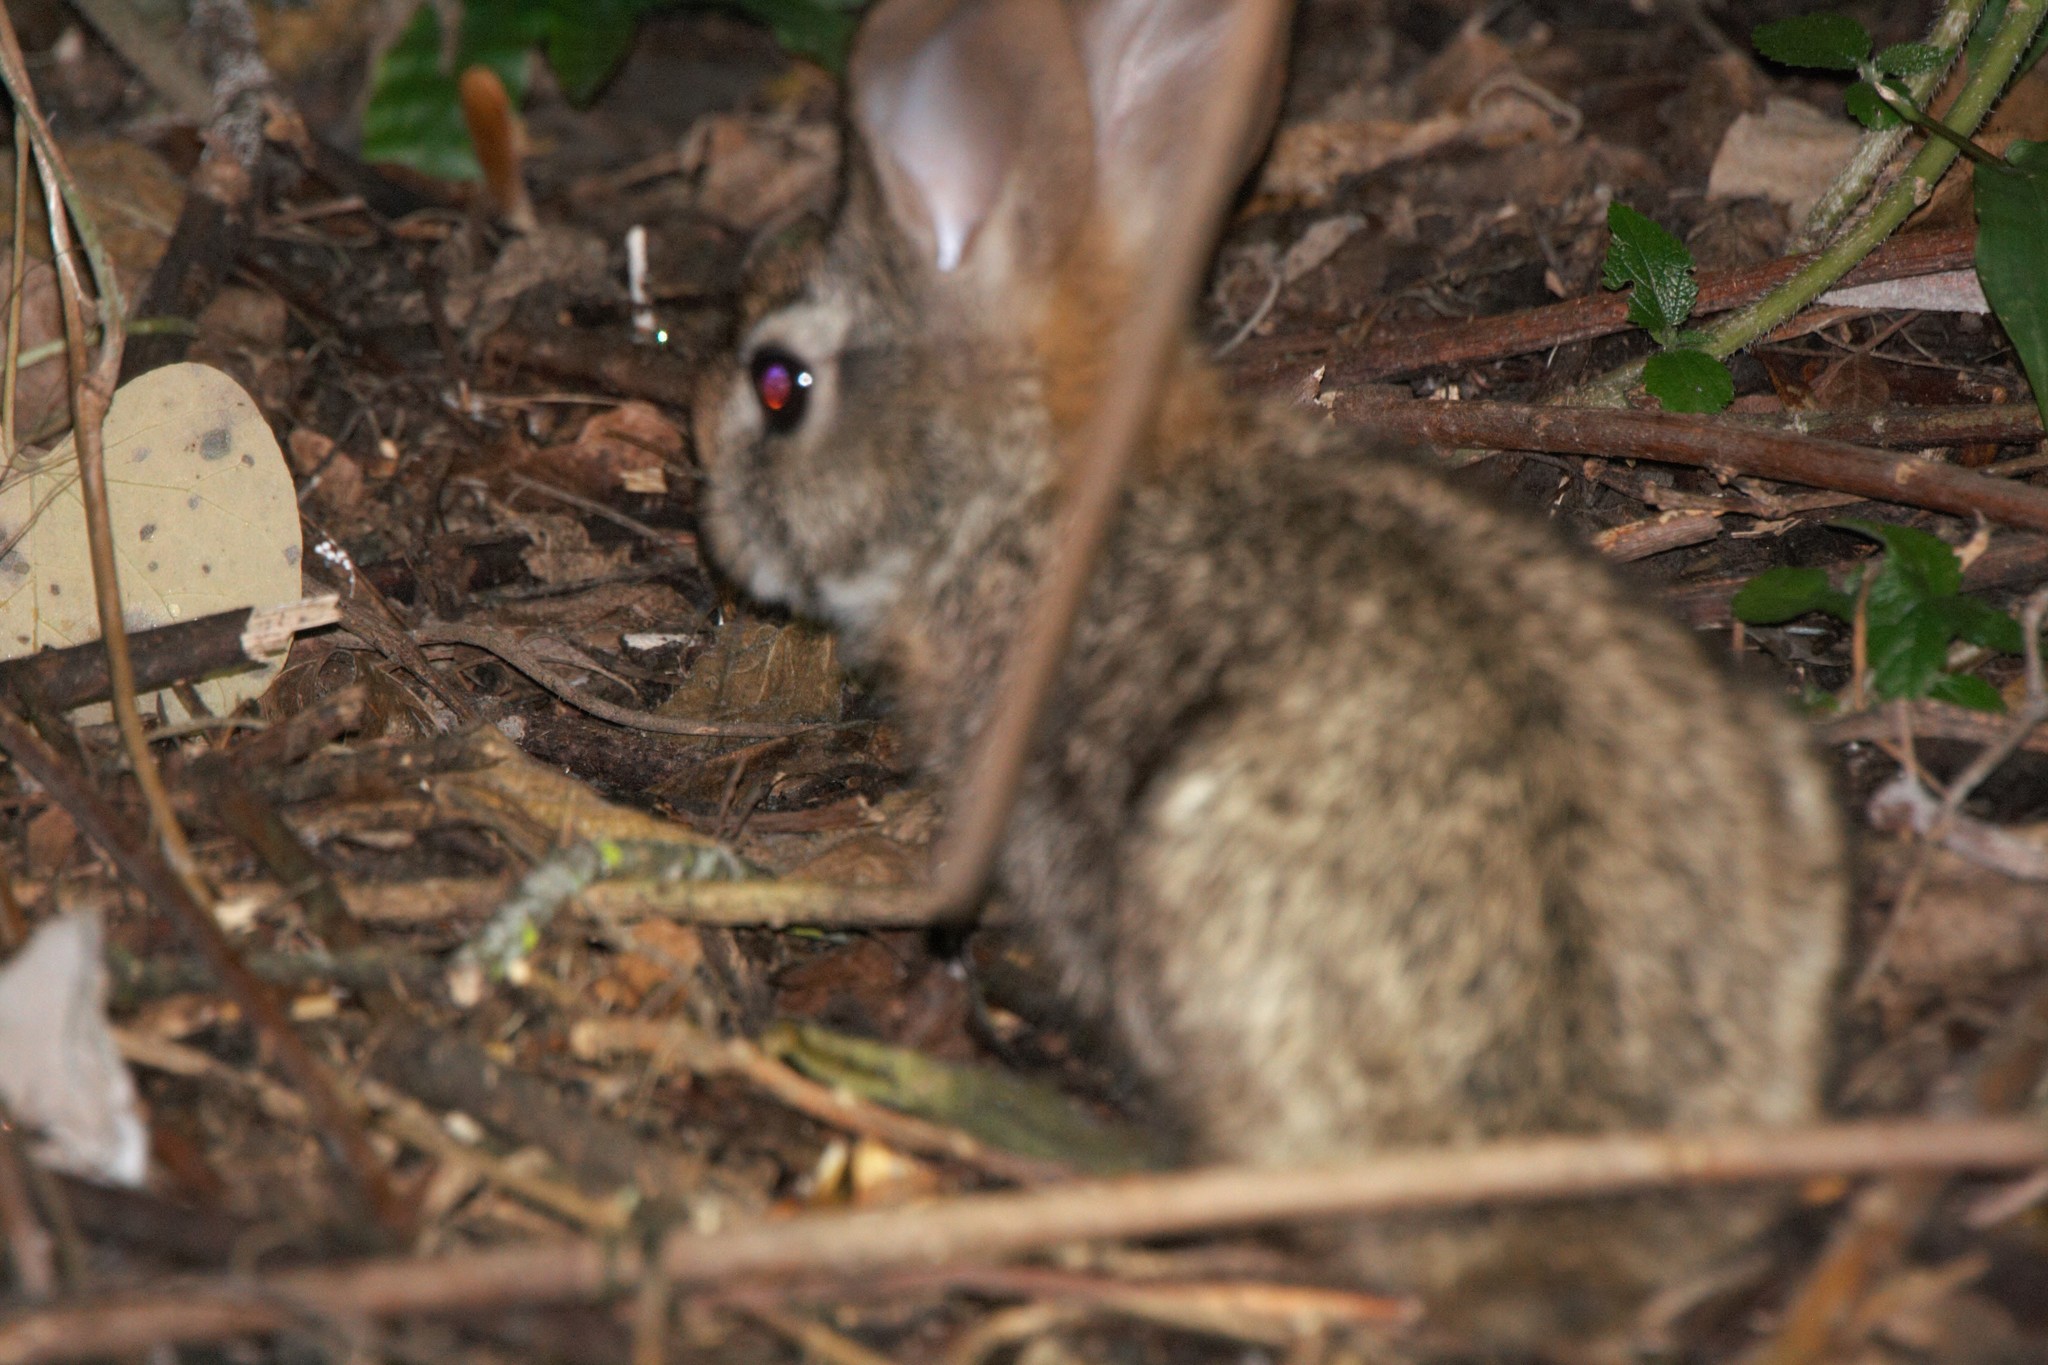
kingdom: Animalia
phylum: Chordata
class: Mammalia
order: Lagomorpha
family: Leporidae
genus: Sylvilagus
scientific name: Sylvilagus brasiliensis
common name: Tapeti
